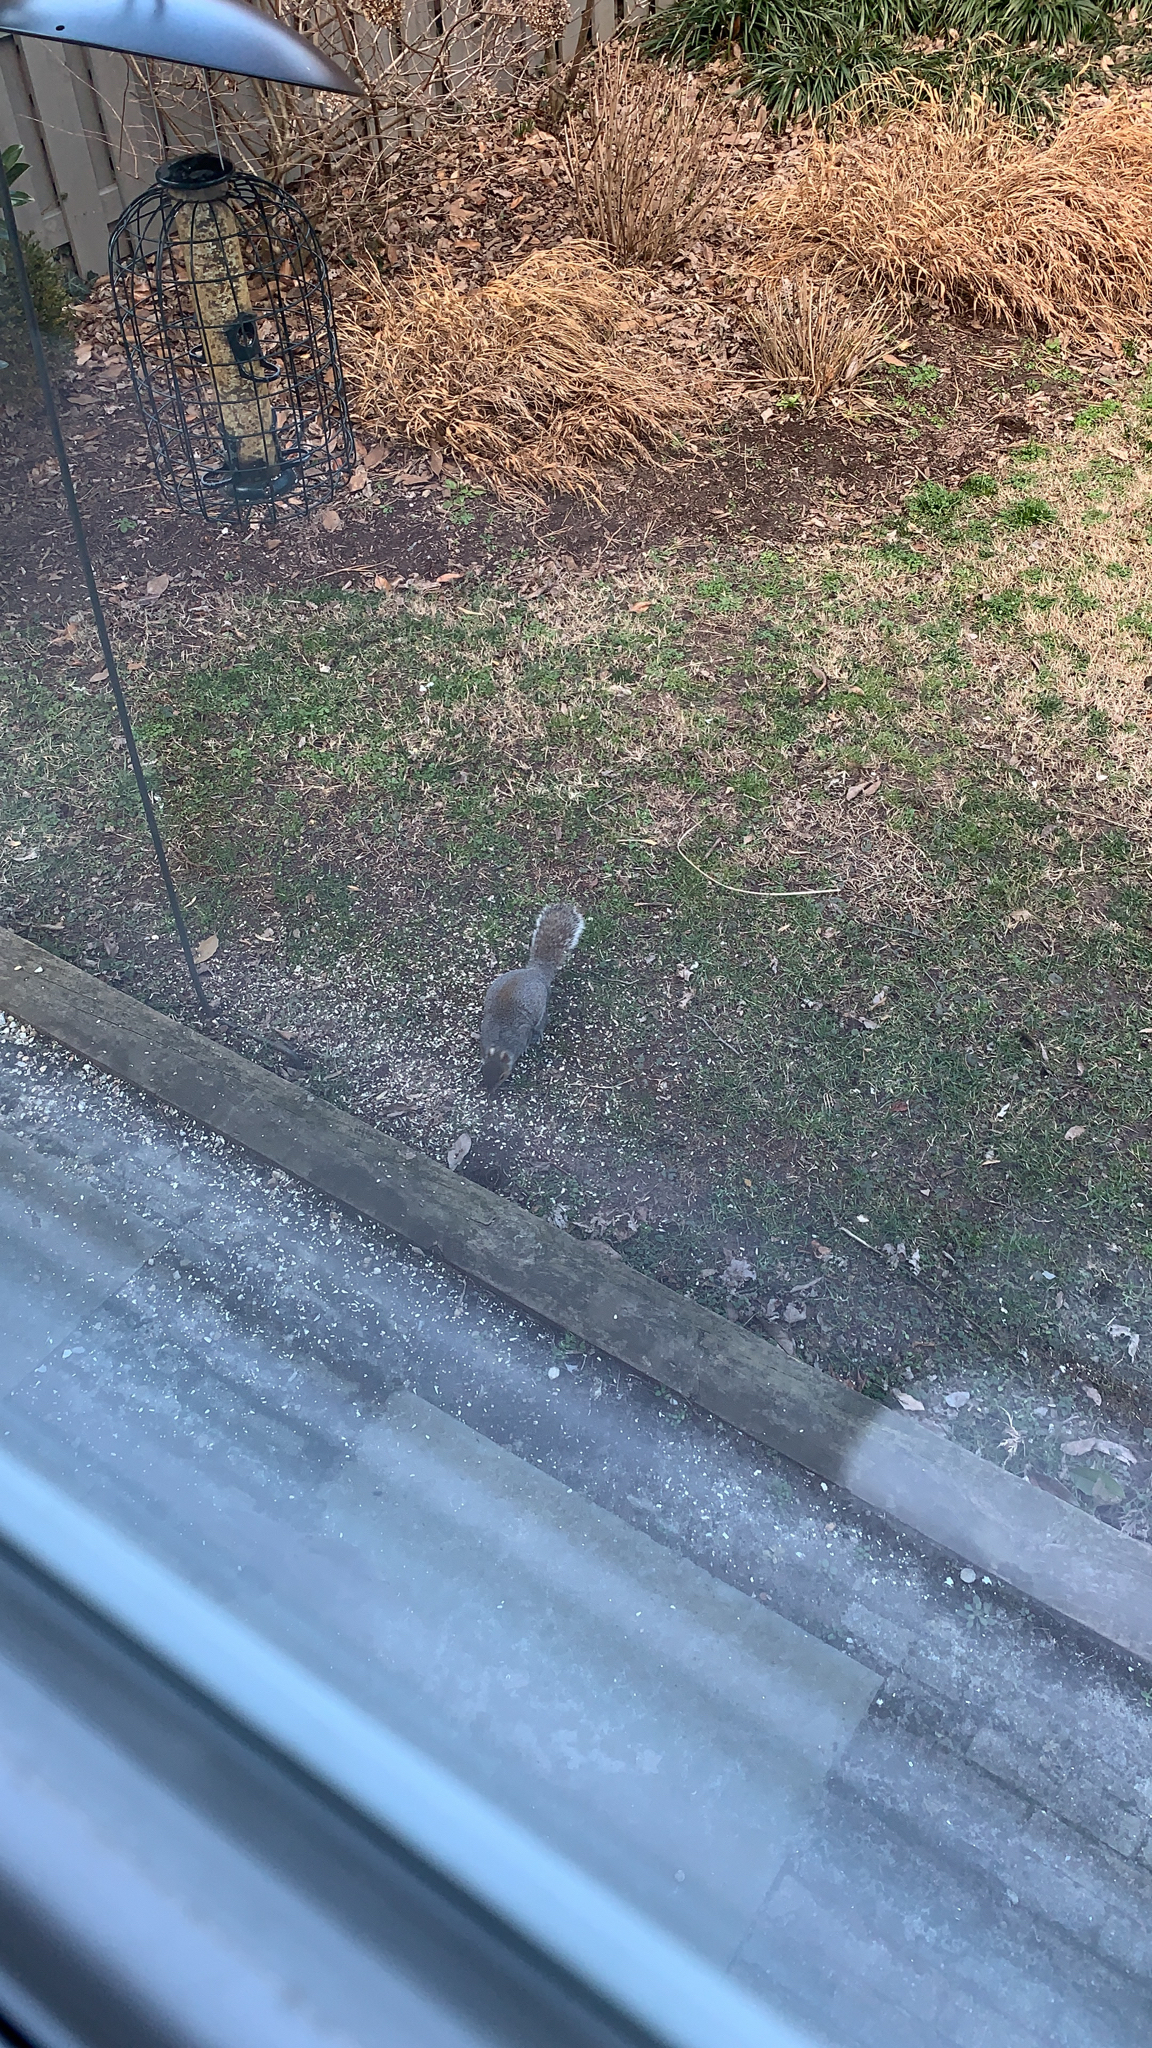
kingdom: Animalia
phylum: Chordata
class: Mammalia
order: Rodentia
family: Sciuridae
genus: Sciurus
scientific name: Sciurus carolinensis
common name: Eastern gray squirrel
